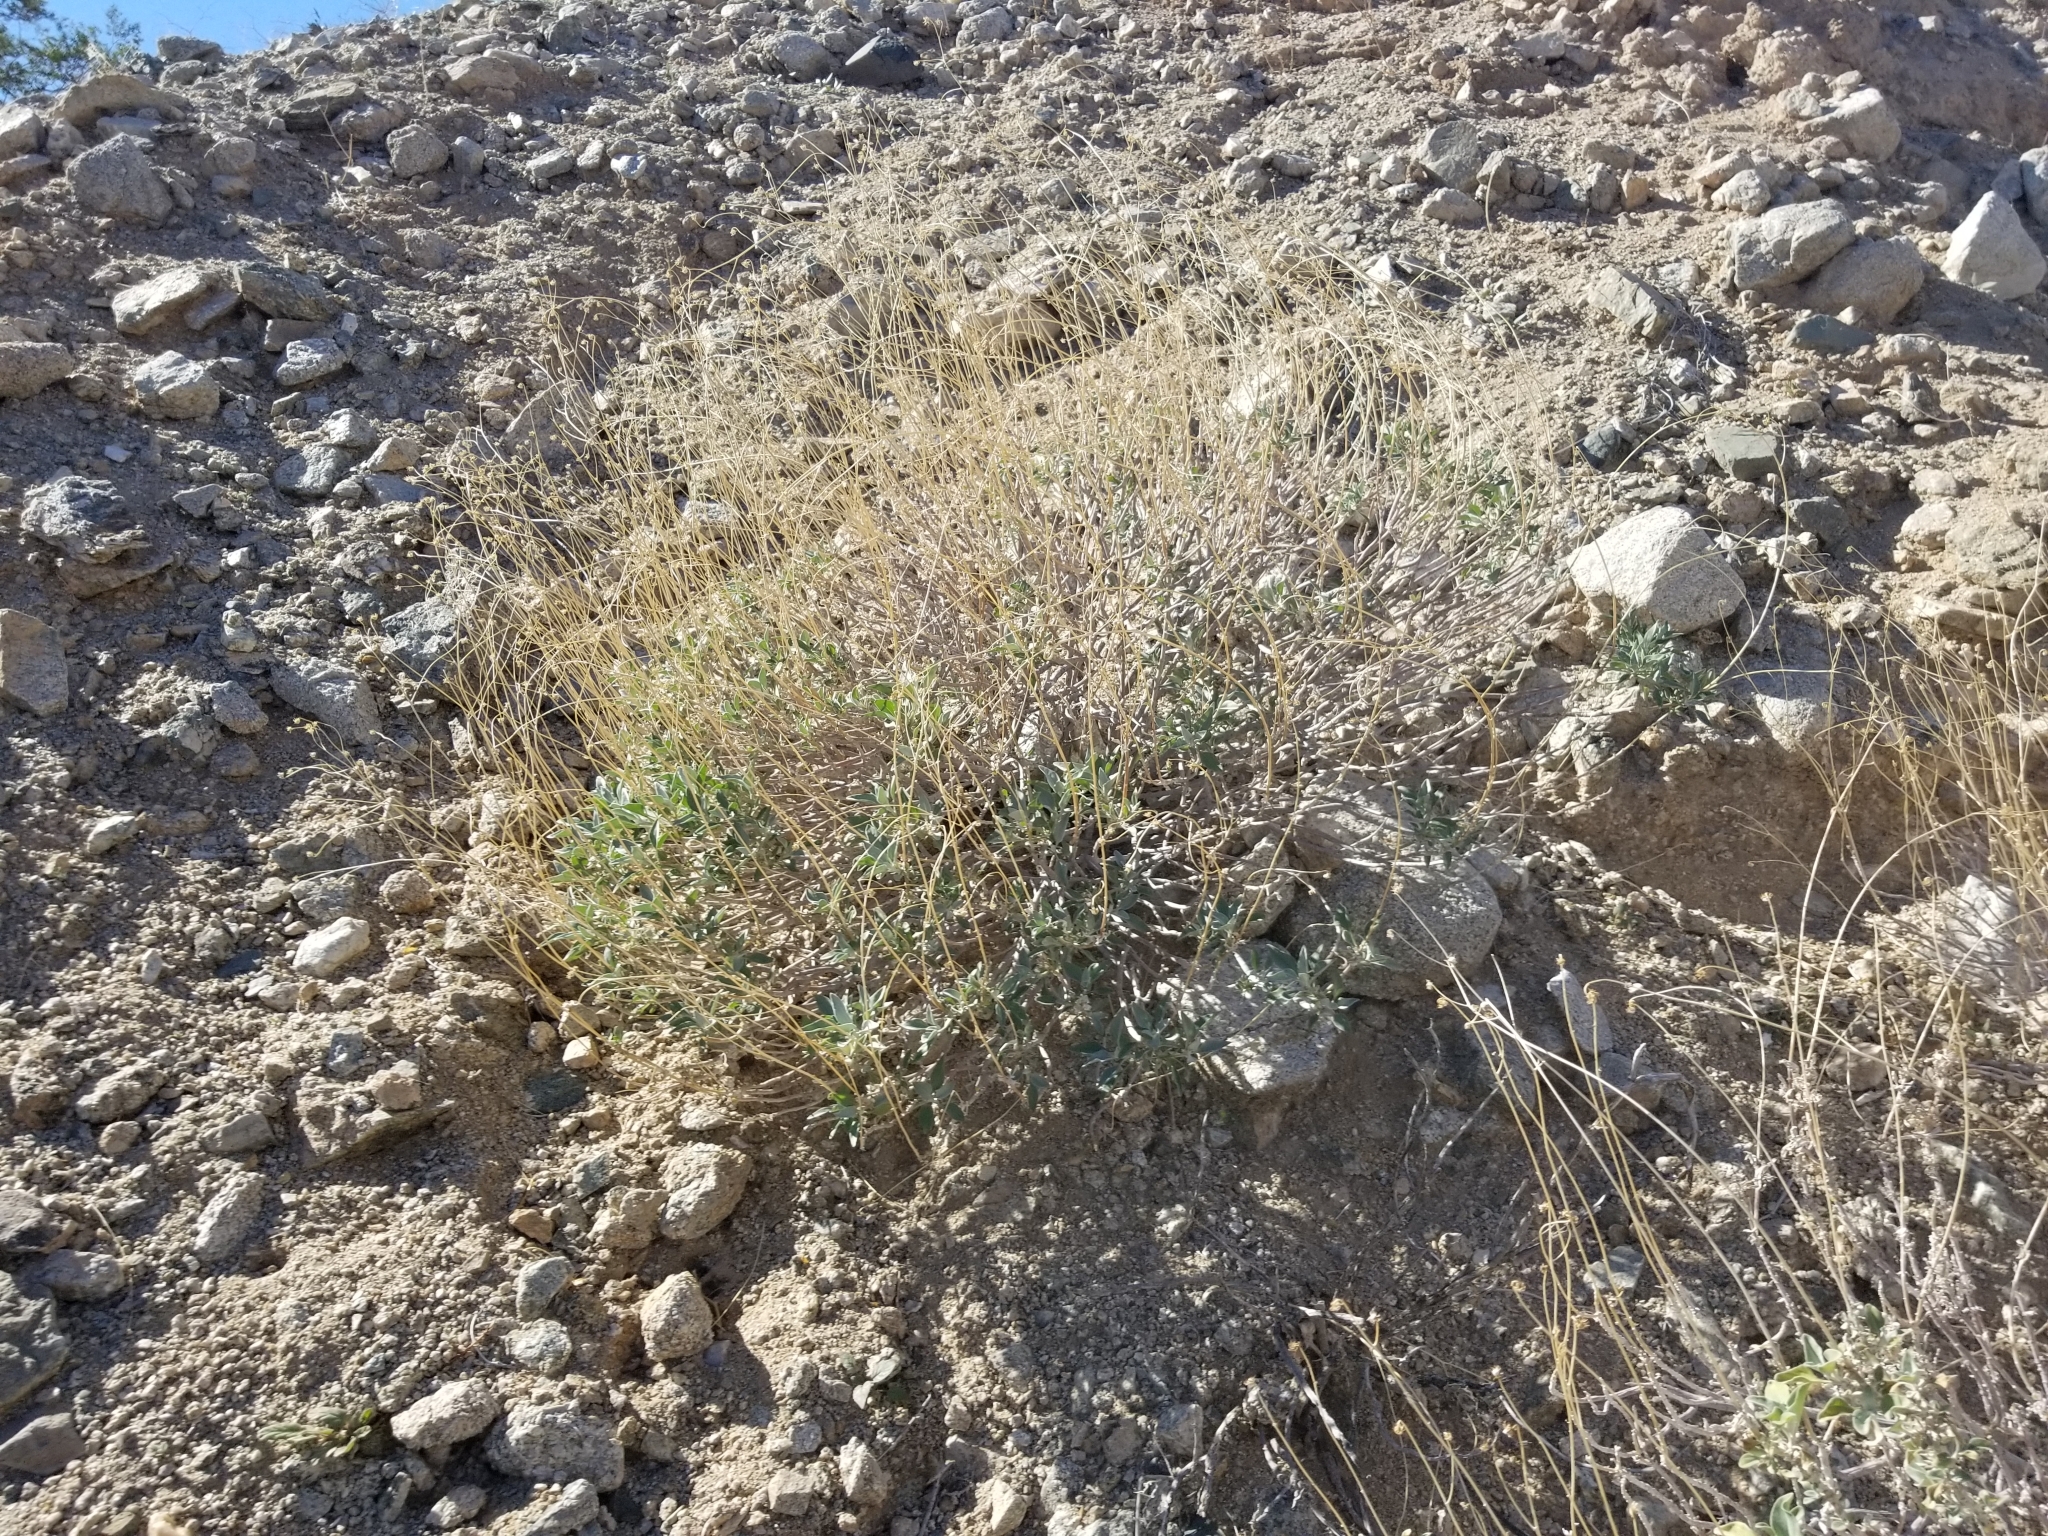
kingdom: Plantae
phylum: Tracheophyta
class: Magnoliopsida
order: Asterales
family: Asteraceae
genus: Encelia
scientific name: Encelia farinosa
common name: Brittlebush
